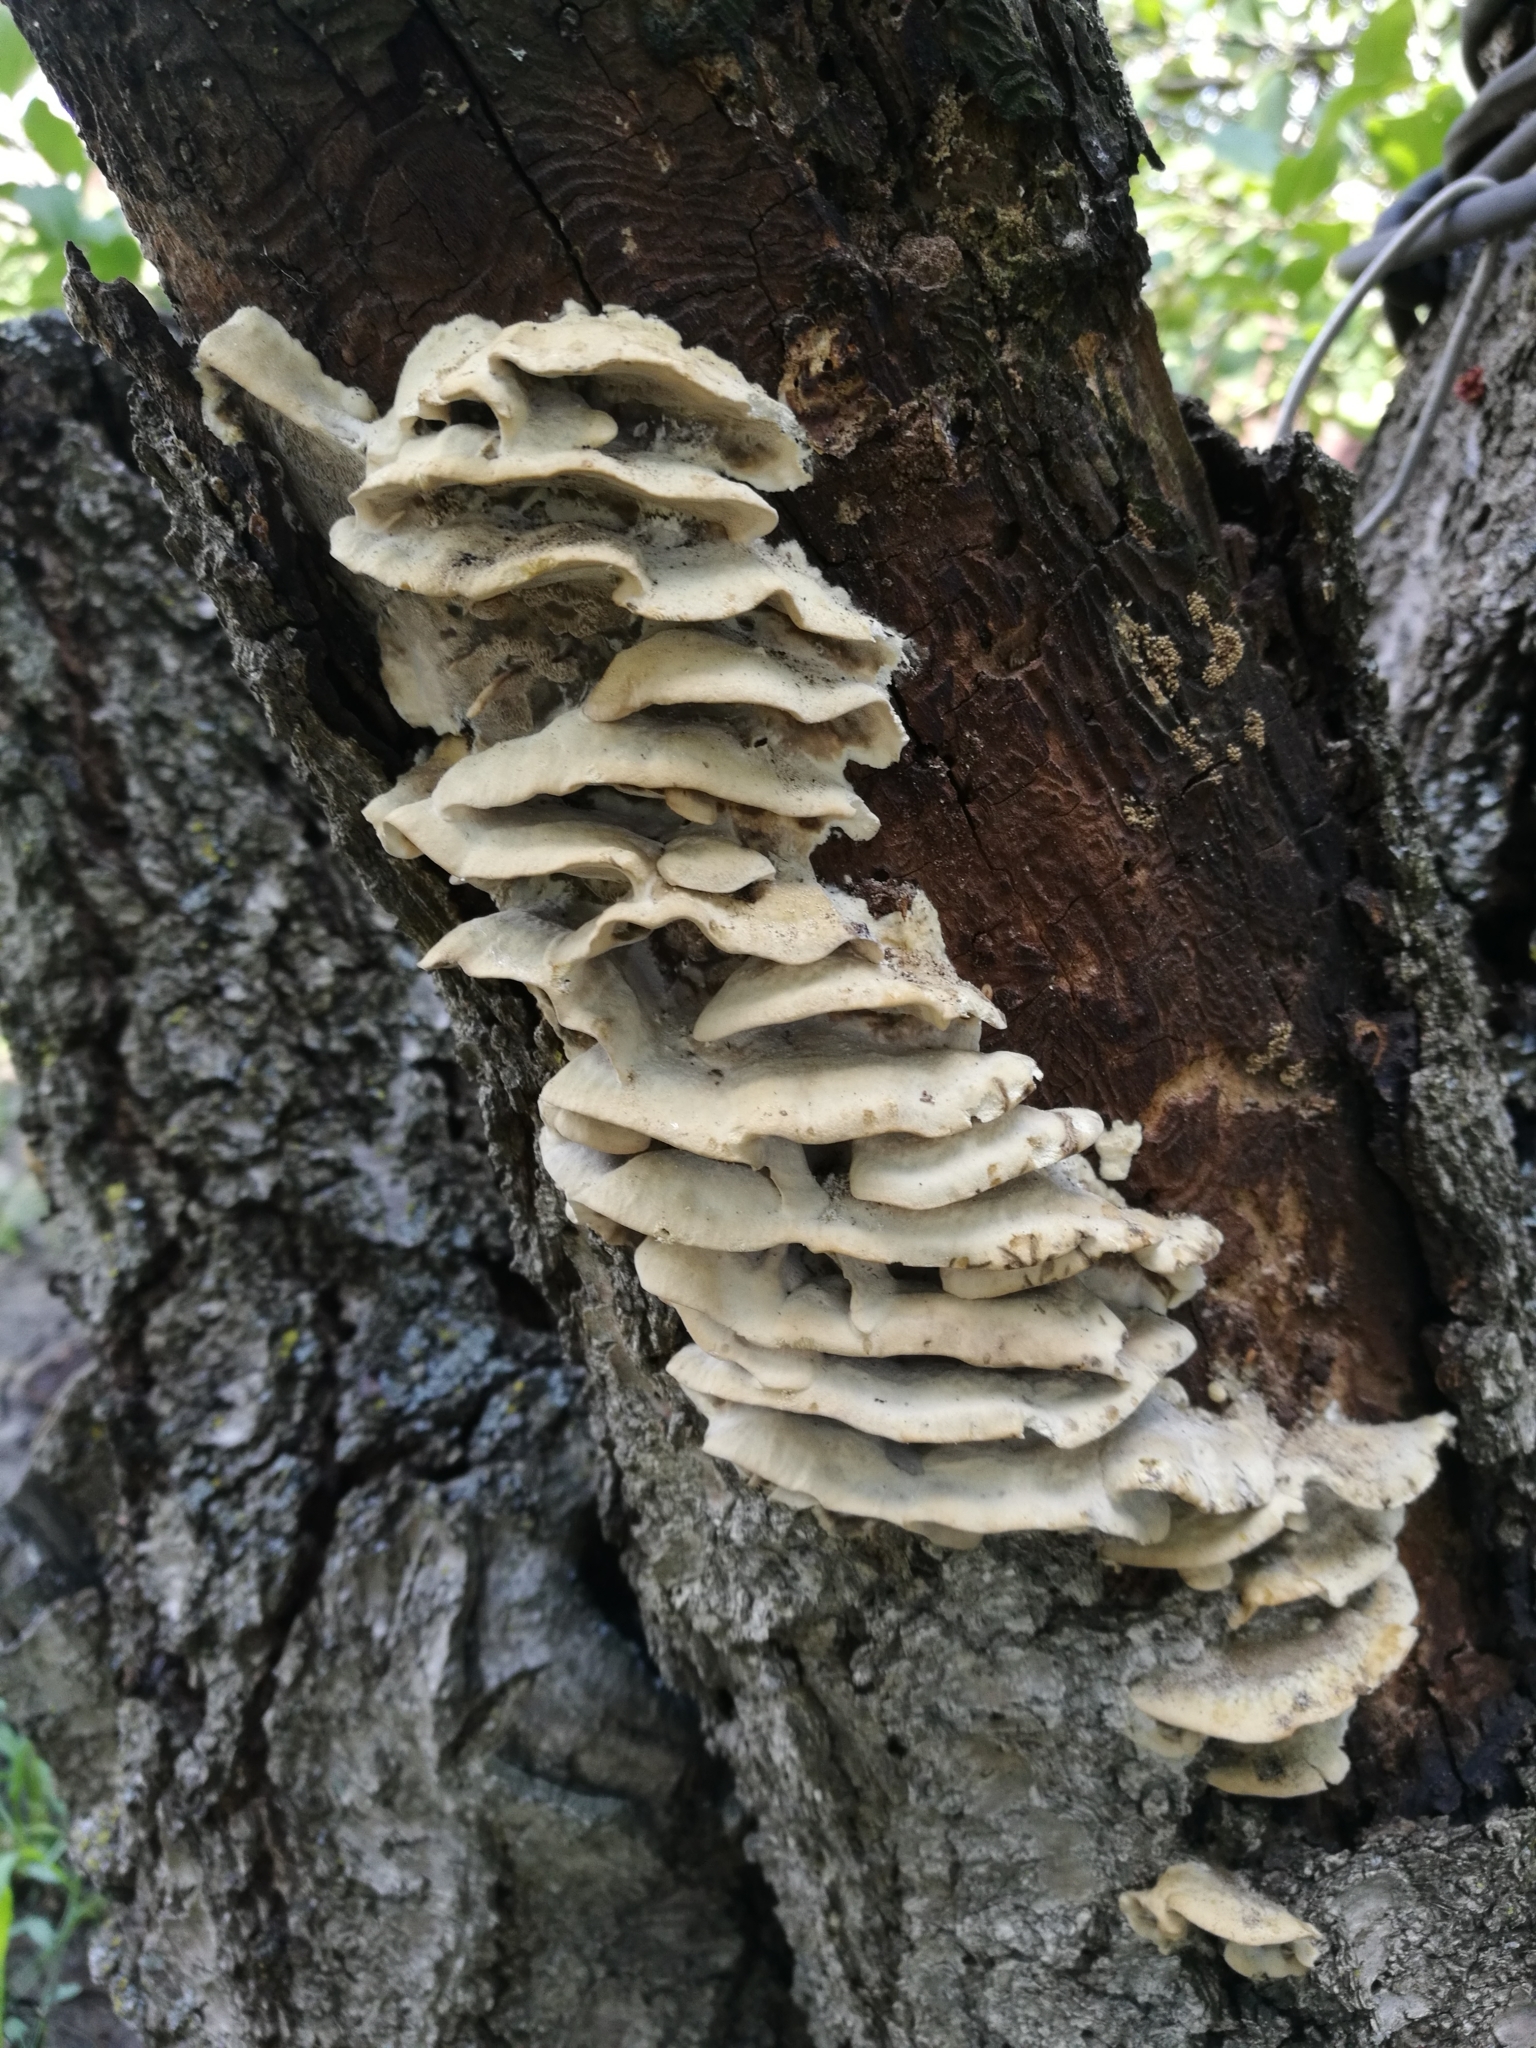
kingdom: Fungi
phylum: Basidiomycota
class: Agaricomycetes
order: Polyporales
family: Phanerochaetaceae
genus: Bjerkandera
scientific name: Bjerkandera fumosa
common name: Big smoky bracket
